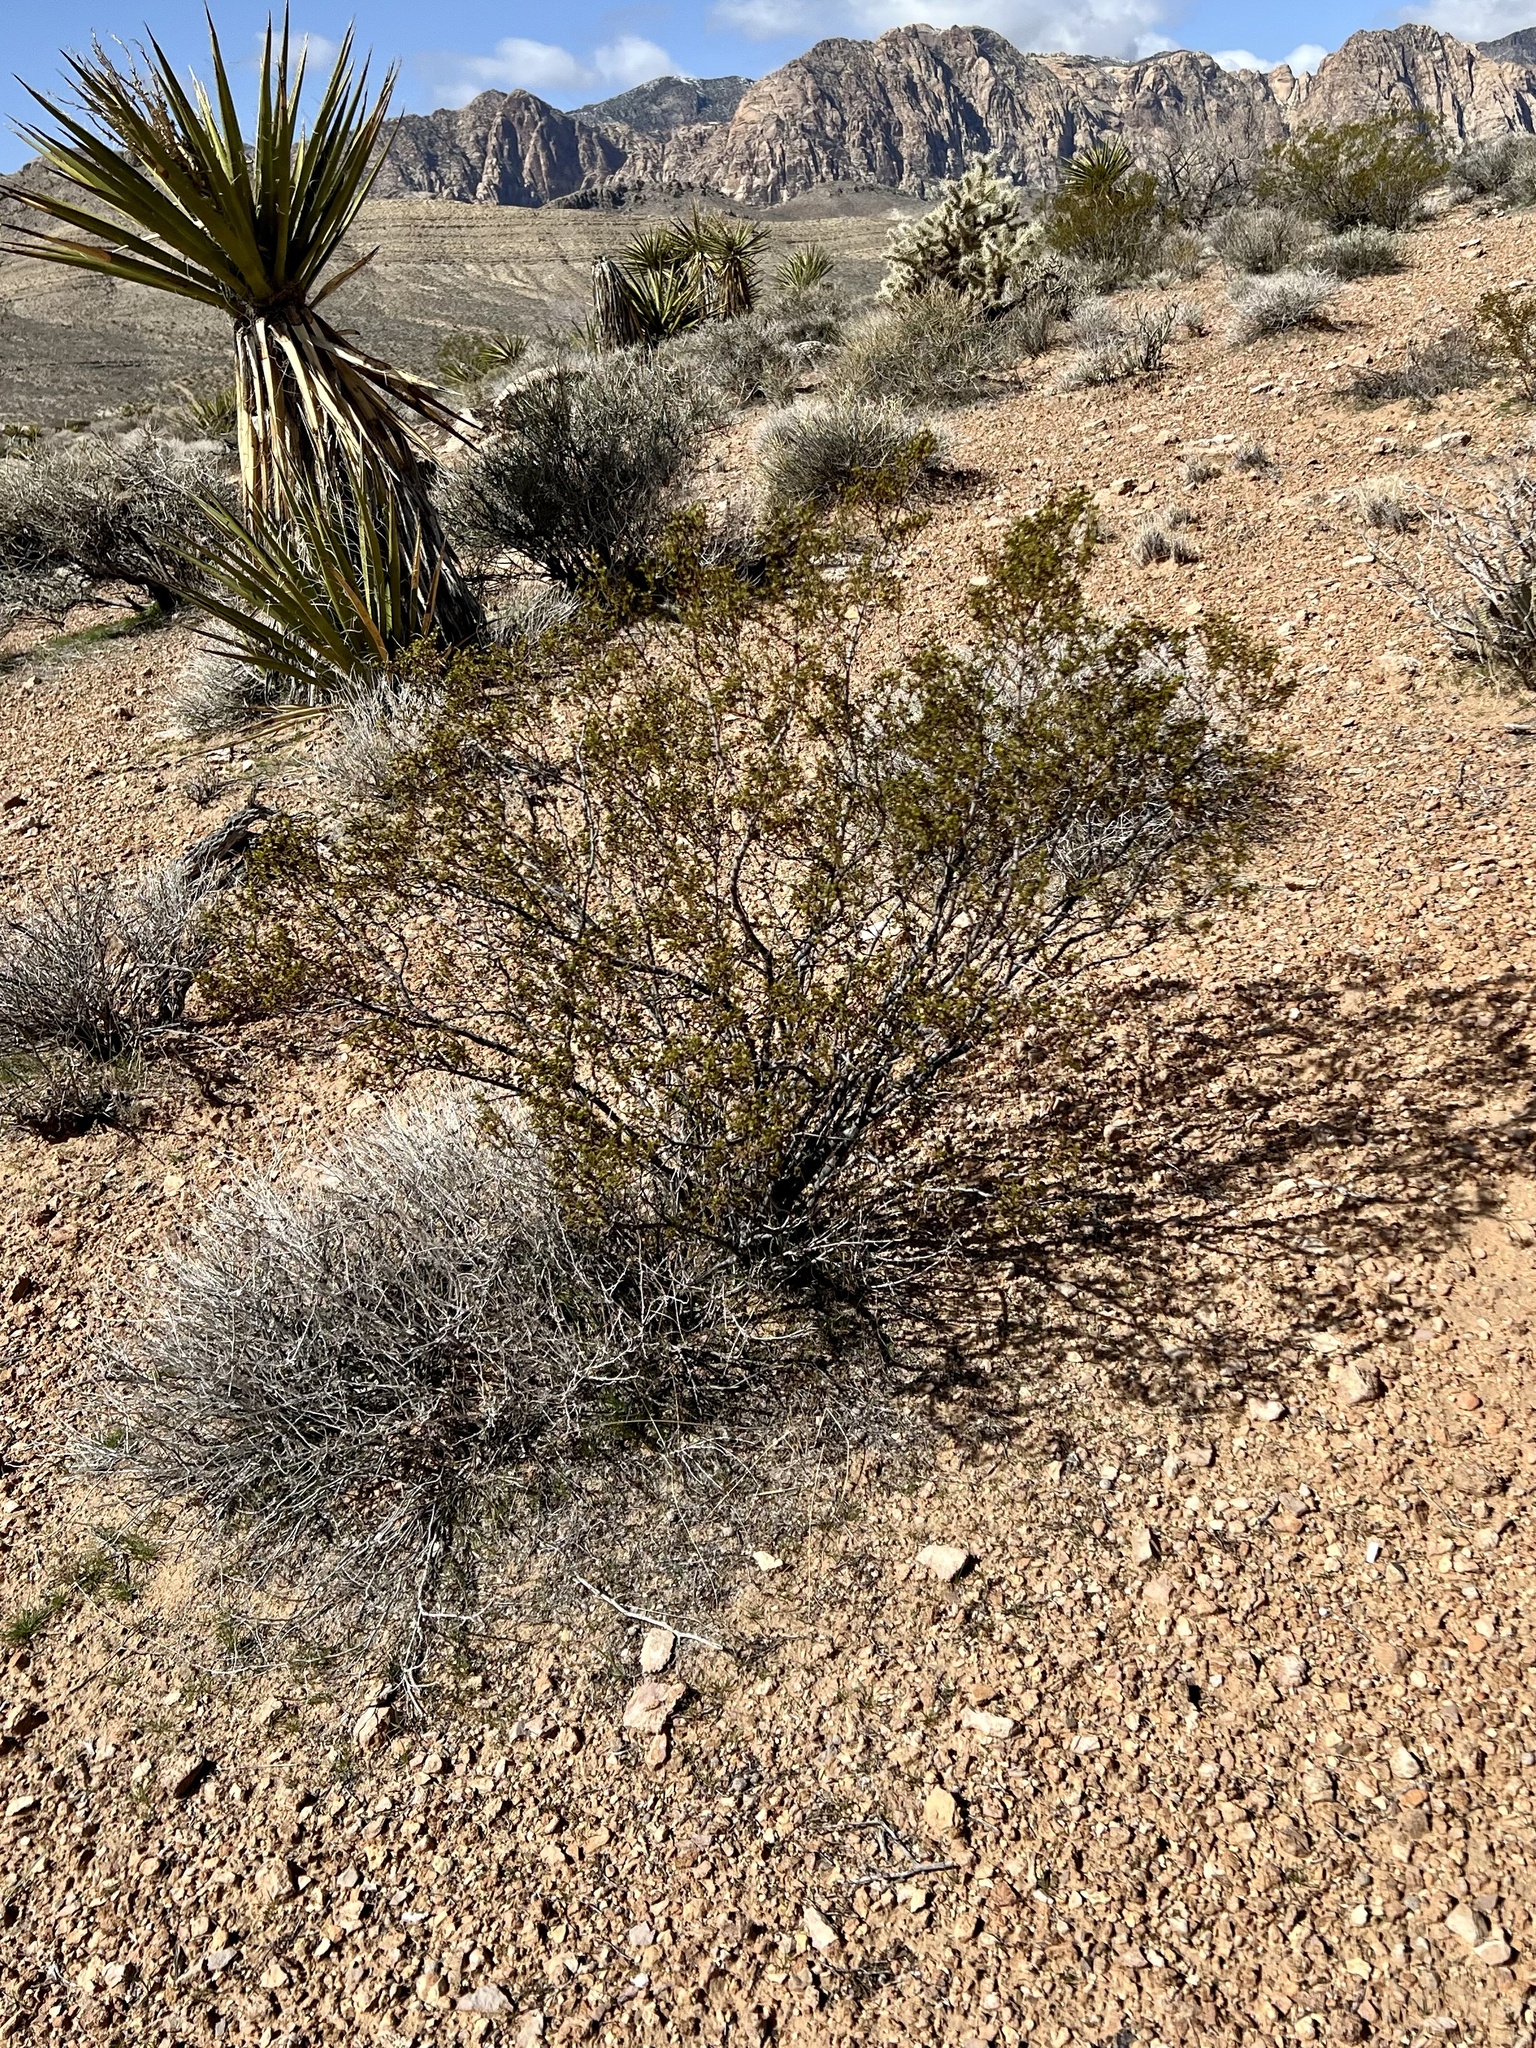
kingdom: Plantae
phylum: Tracheophyta
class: Magnoliopsida
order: Zygophyllales
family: Zygophyllaceae
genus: Larrea
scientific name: Larrea tridentata
